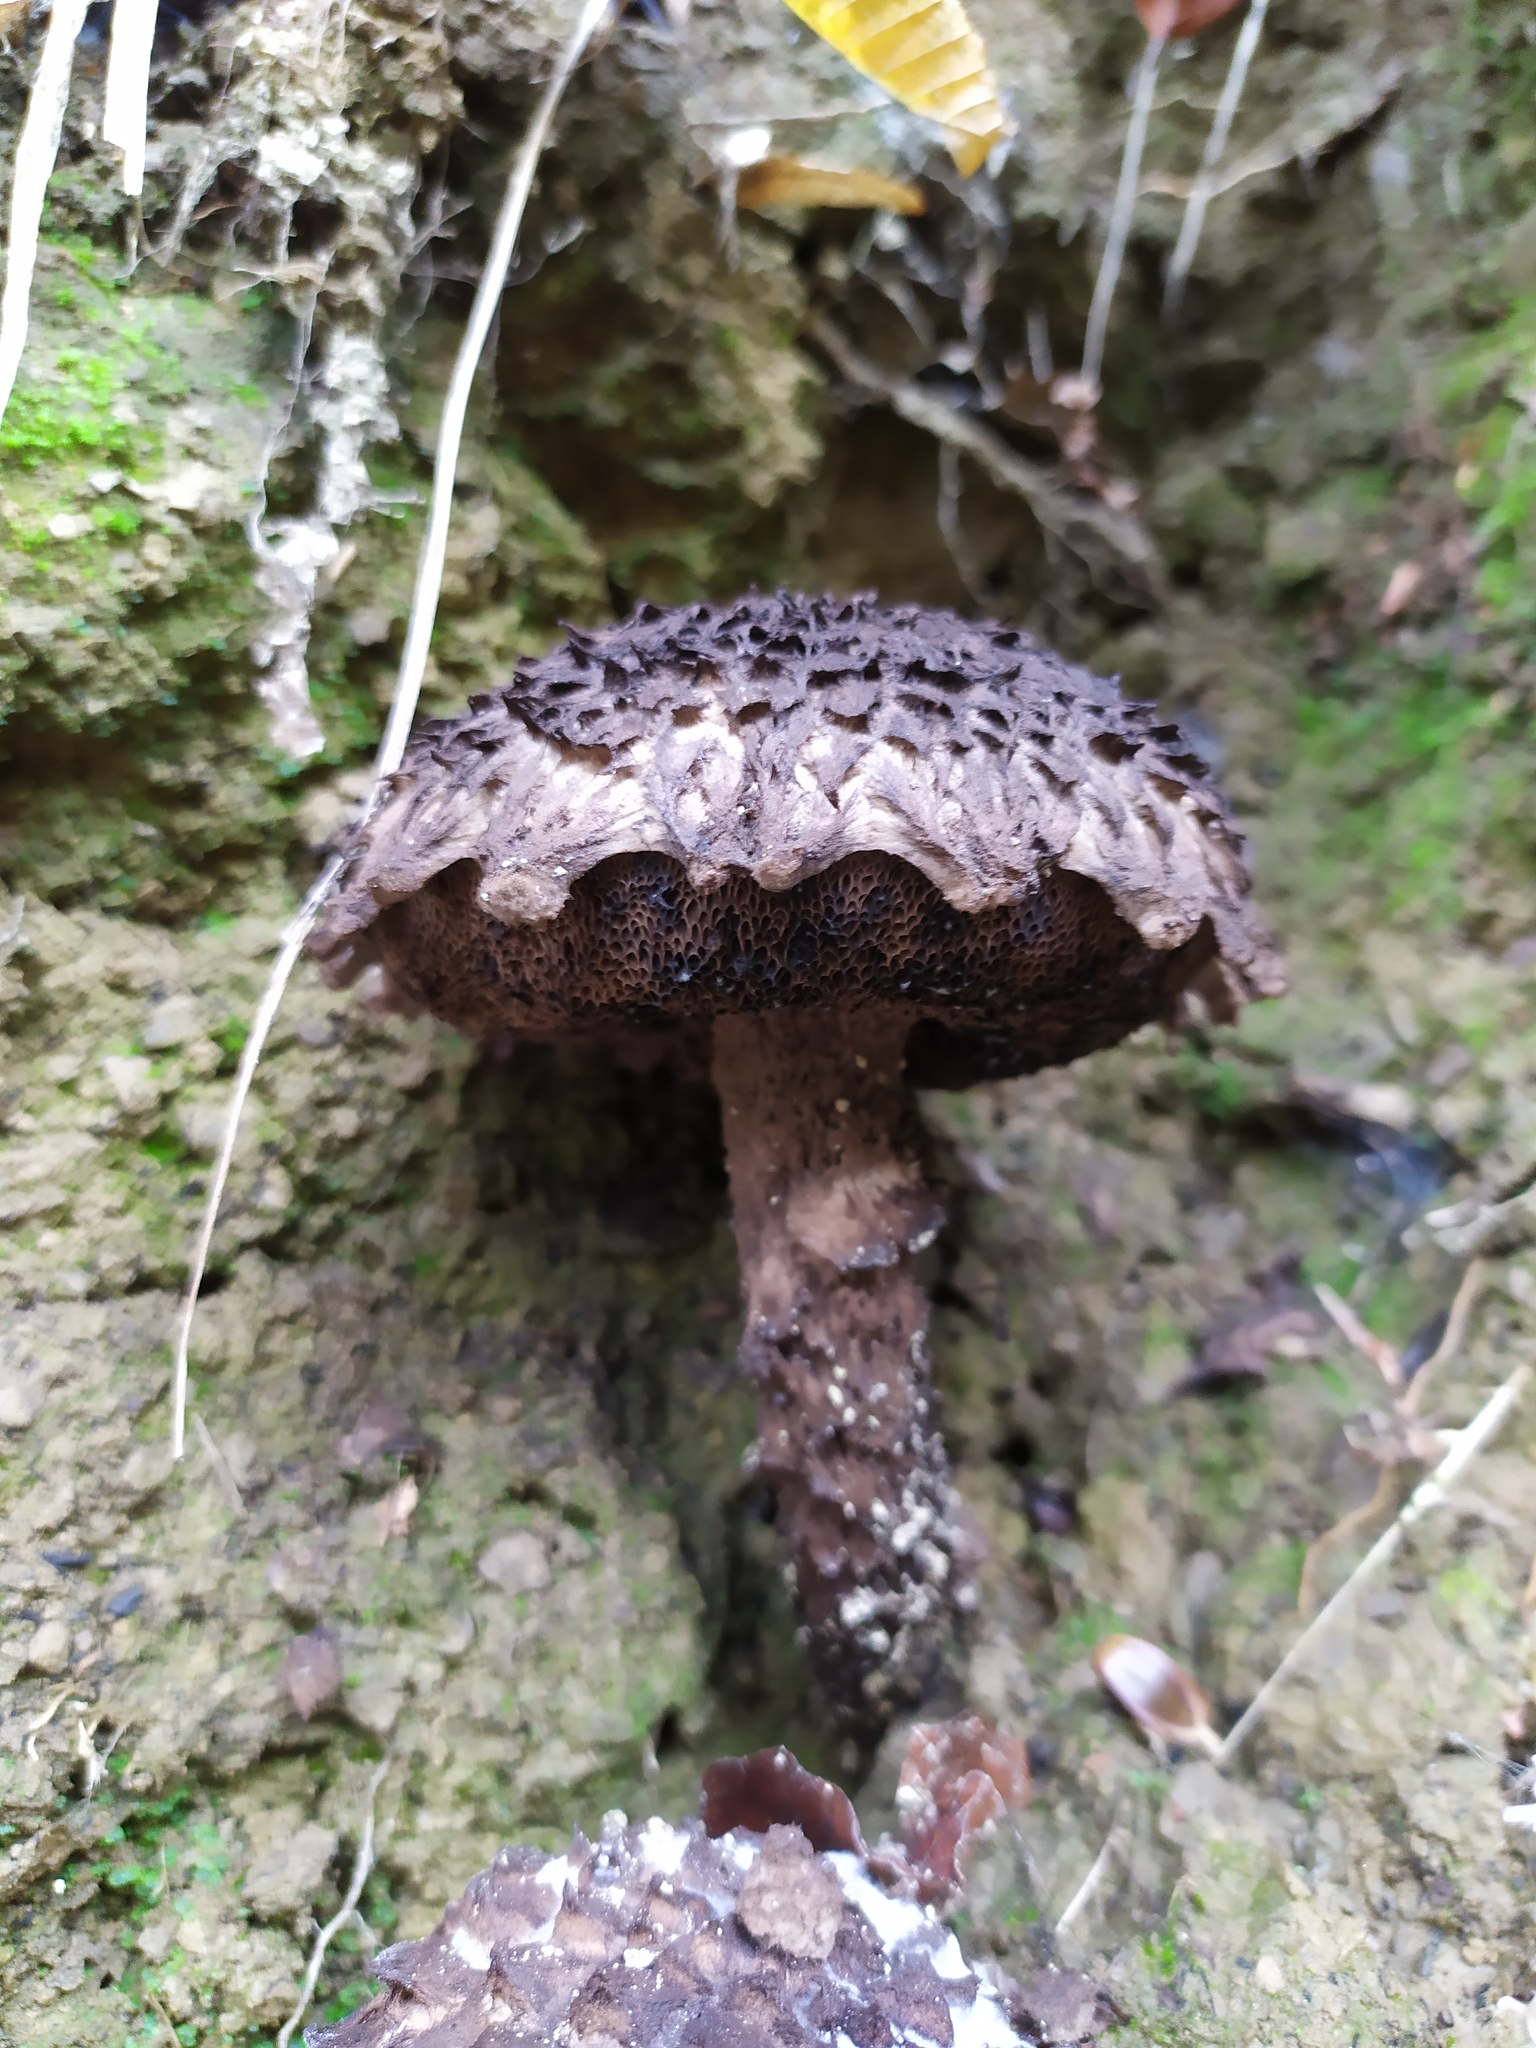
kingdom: Fungi
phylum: Basidiomycota
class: Agaricomycetes
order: Boletales
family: Boletaceae
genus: Strobilomyces
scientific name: Strobilomyces strobilaceus
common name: Old man of the woods
